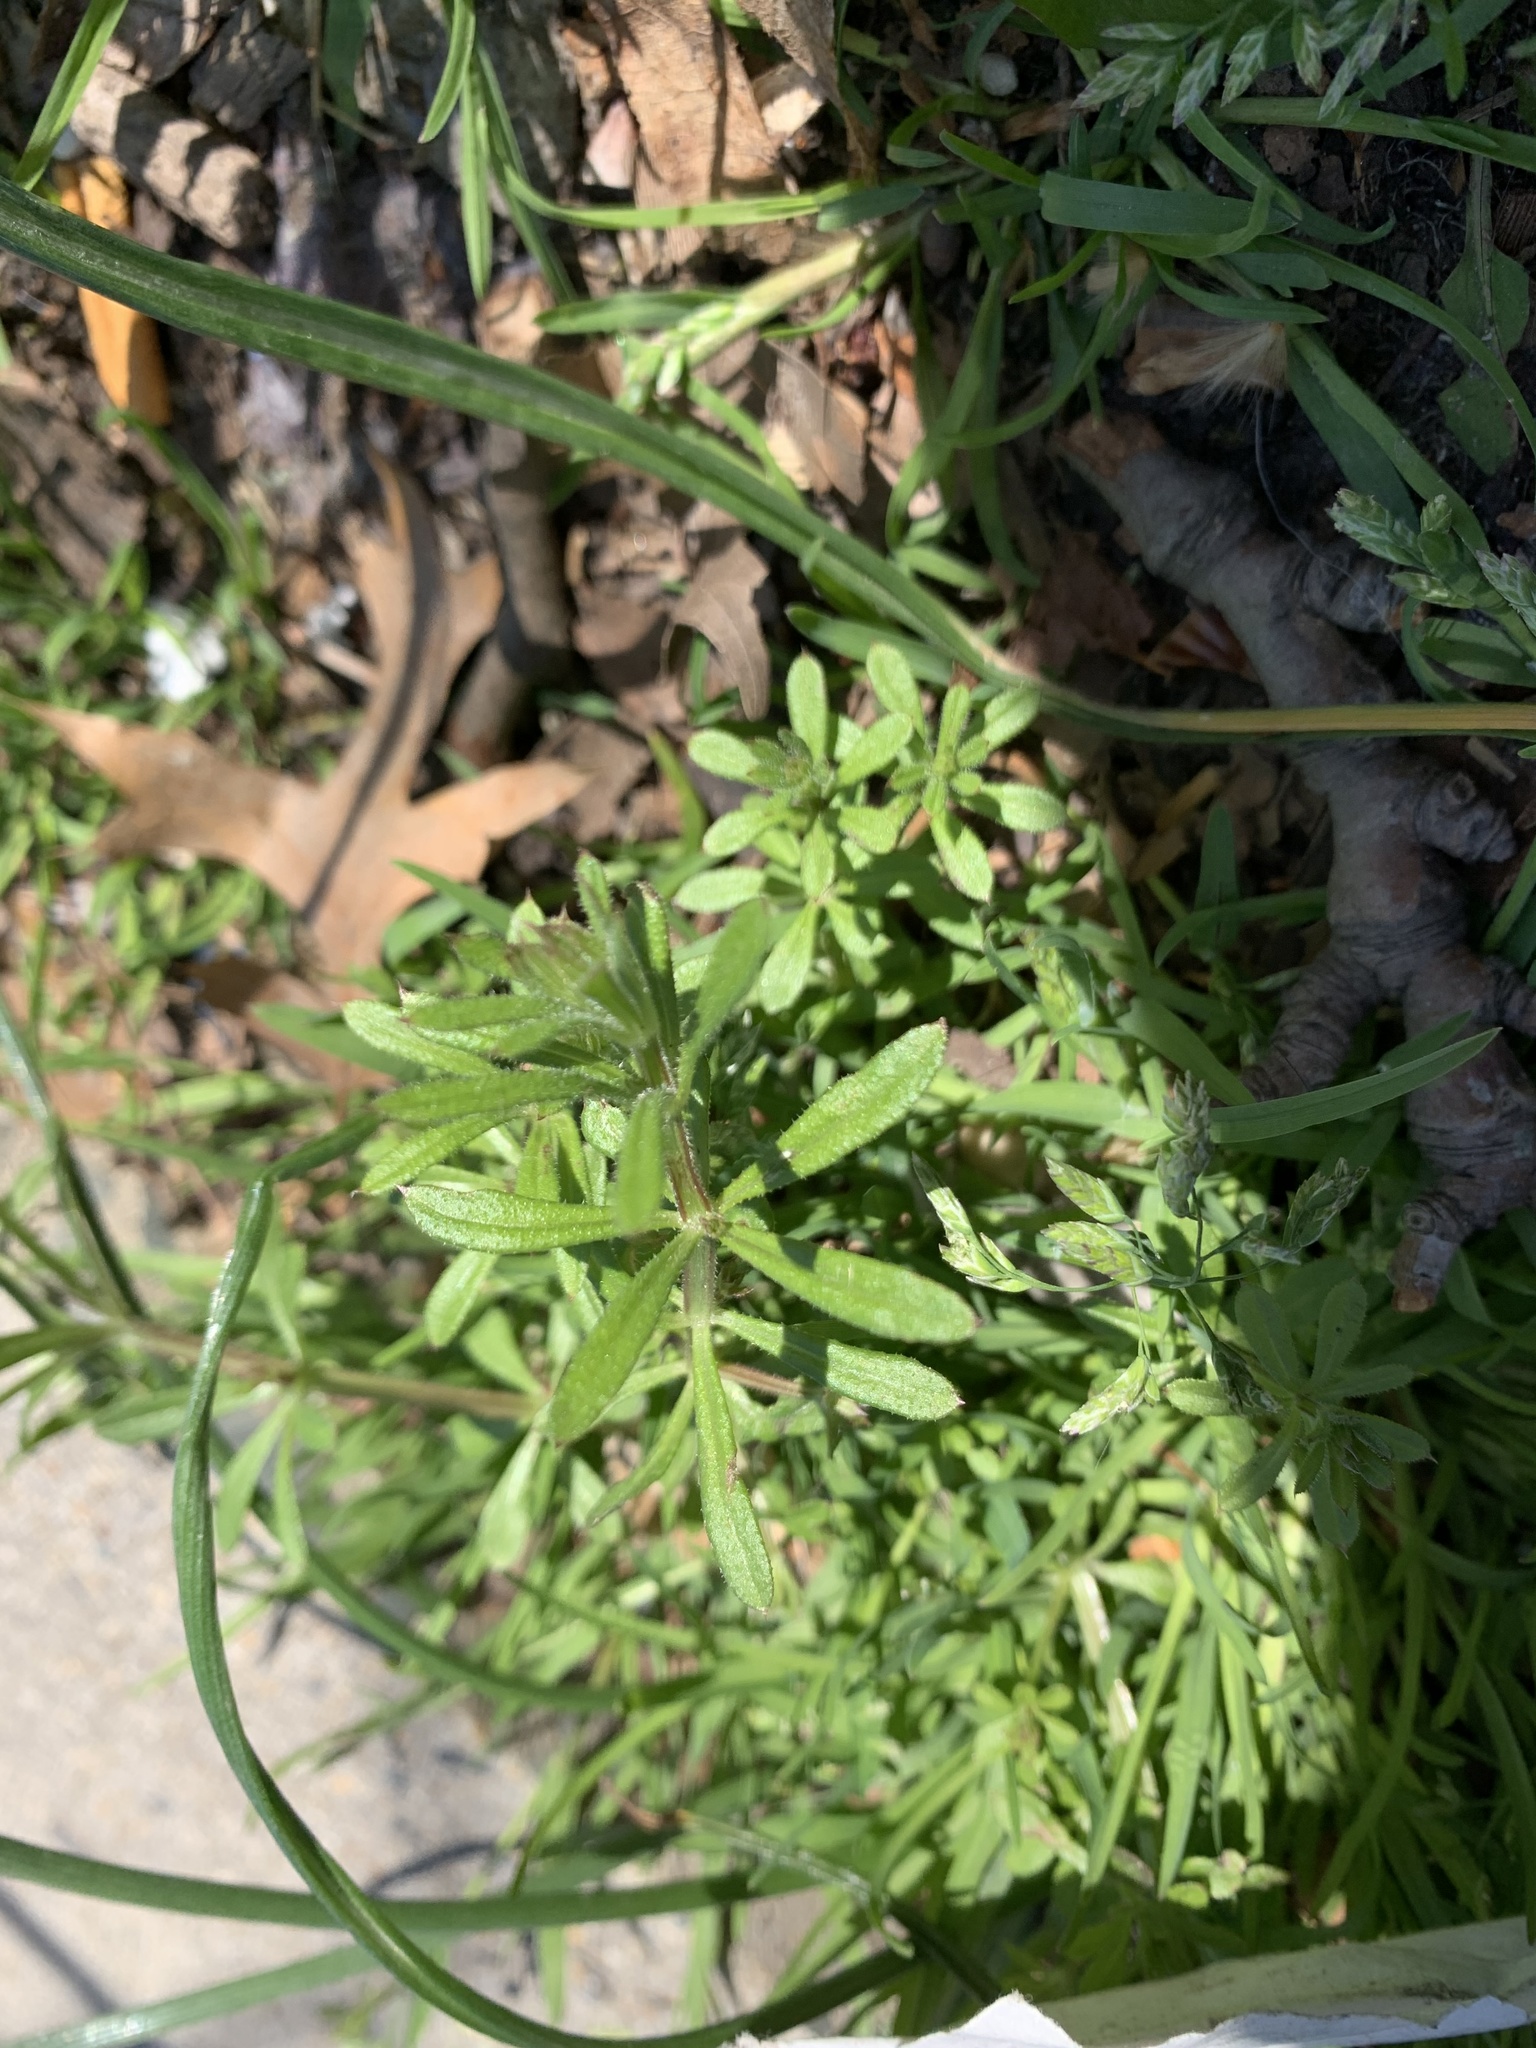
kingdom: Plantae
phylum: Tracheophyta
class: Magnoliopsida
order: Gentianales
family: Rubiaceae
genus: Galium
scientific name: Galium aparine
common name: Cleavers
